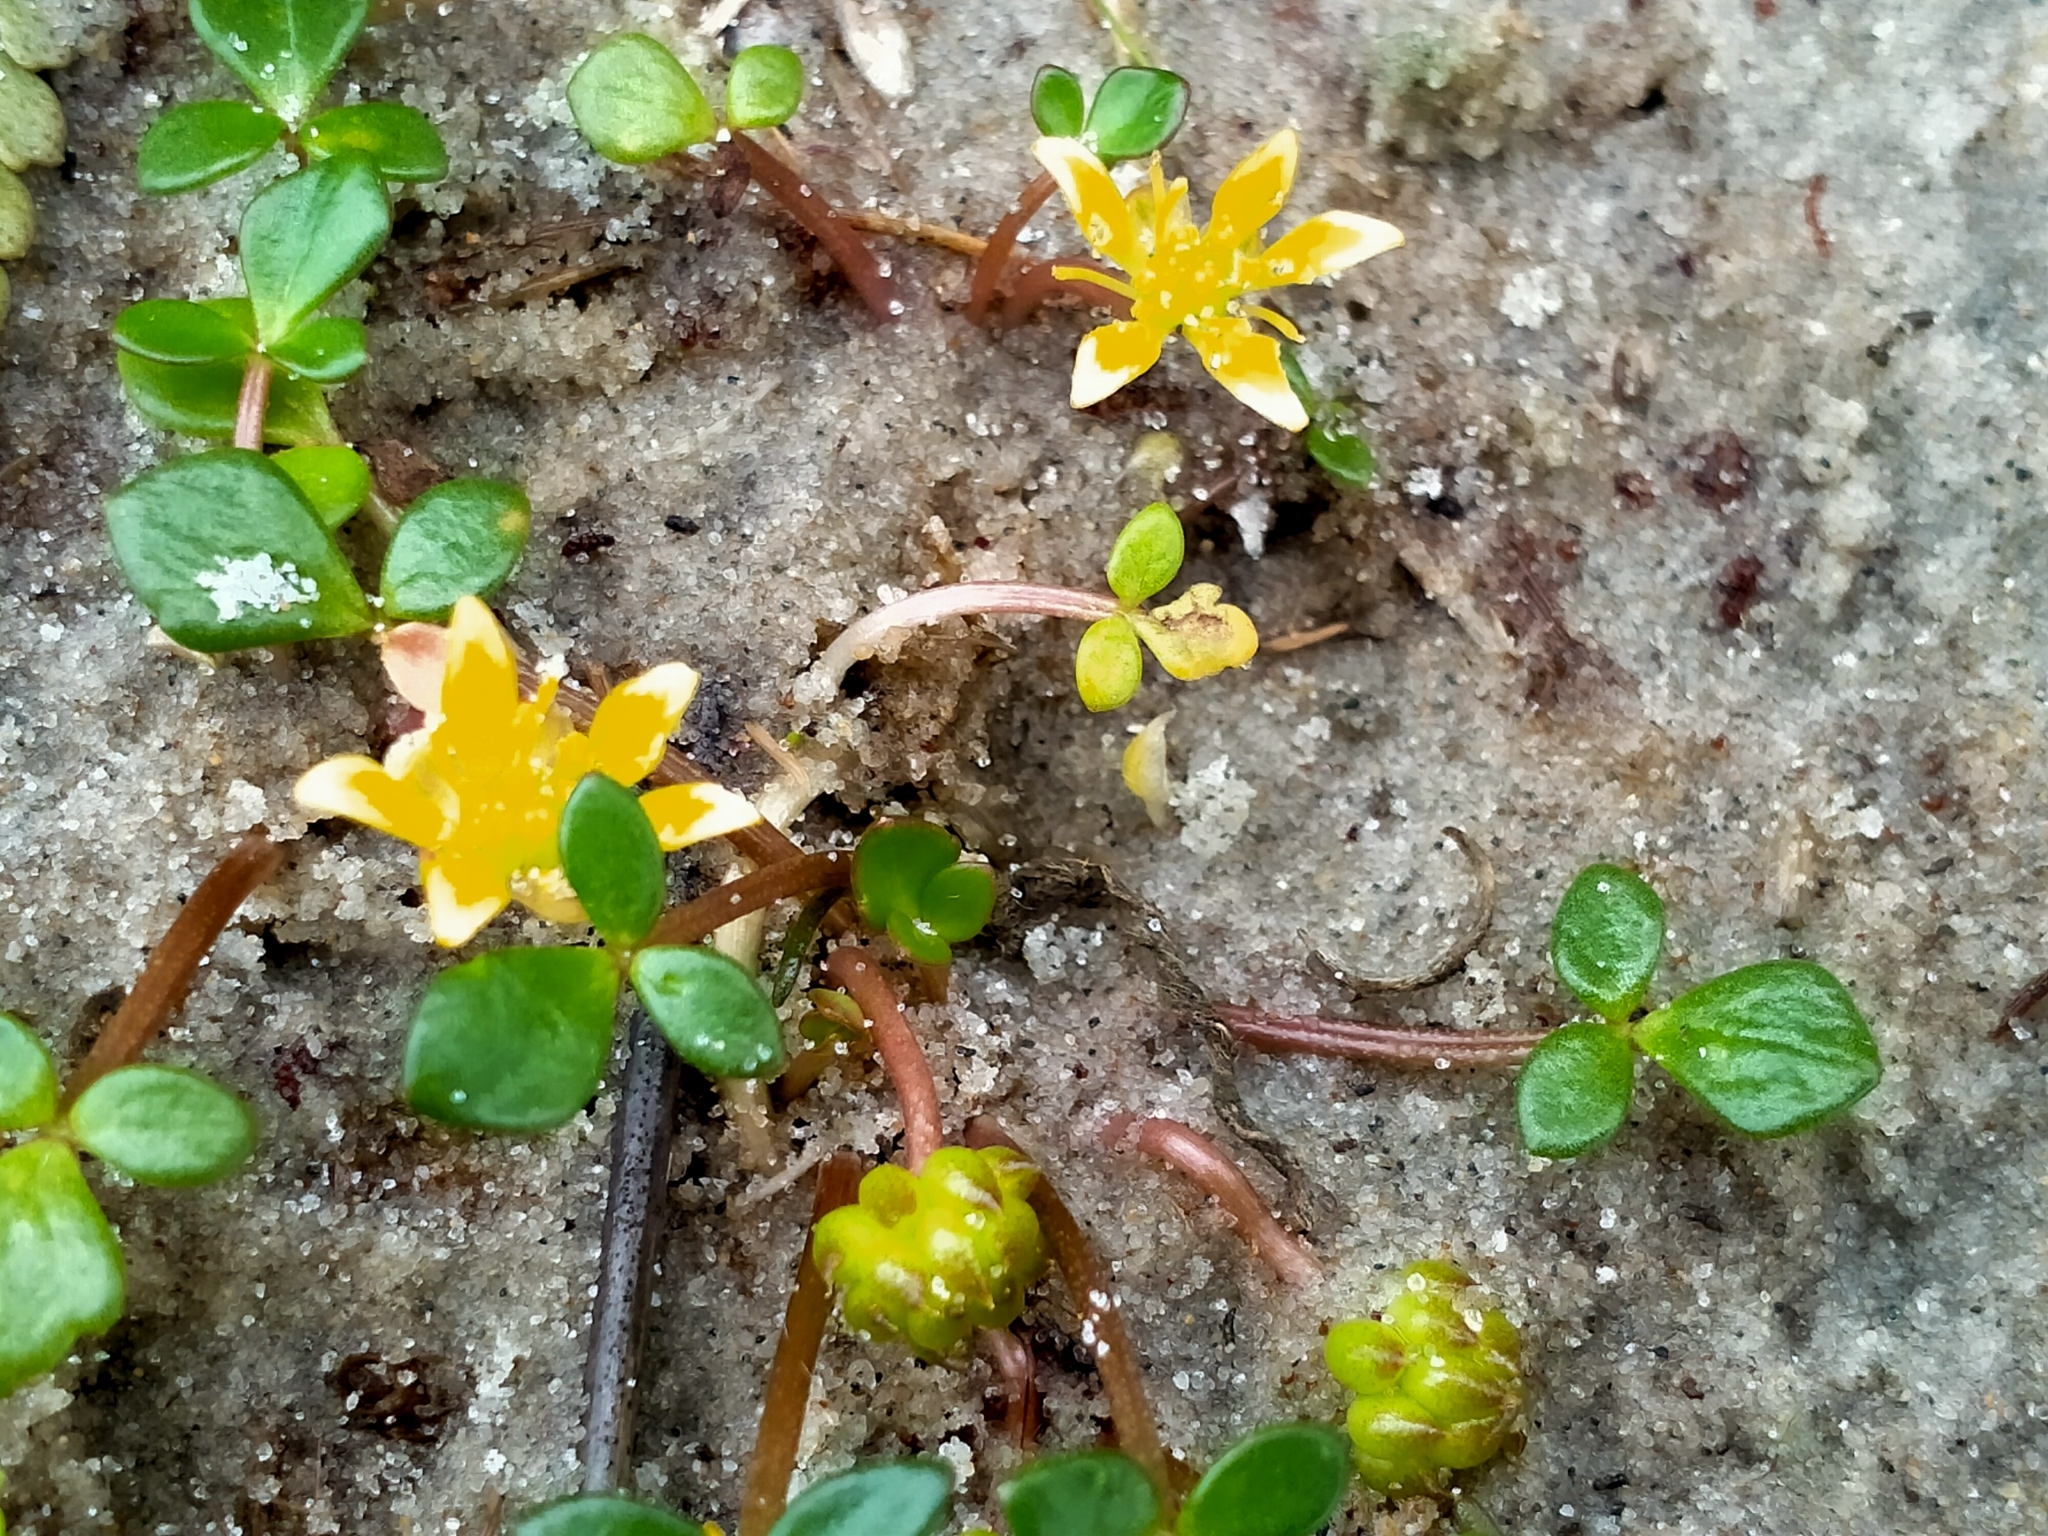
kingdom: Plantae
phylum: Tracheophyta
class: Magnoliopsida
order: Ranunculales
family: Ranunculaceae
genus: Ranunculus
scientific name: Ranunculus acaulis
